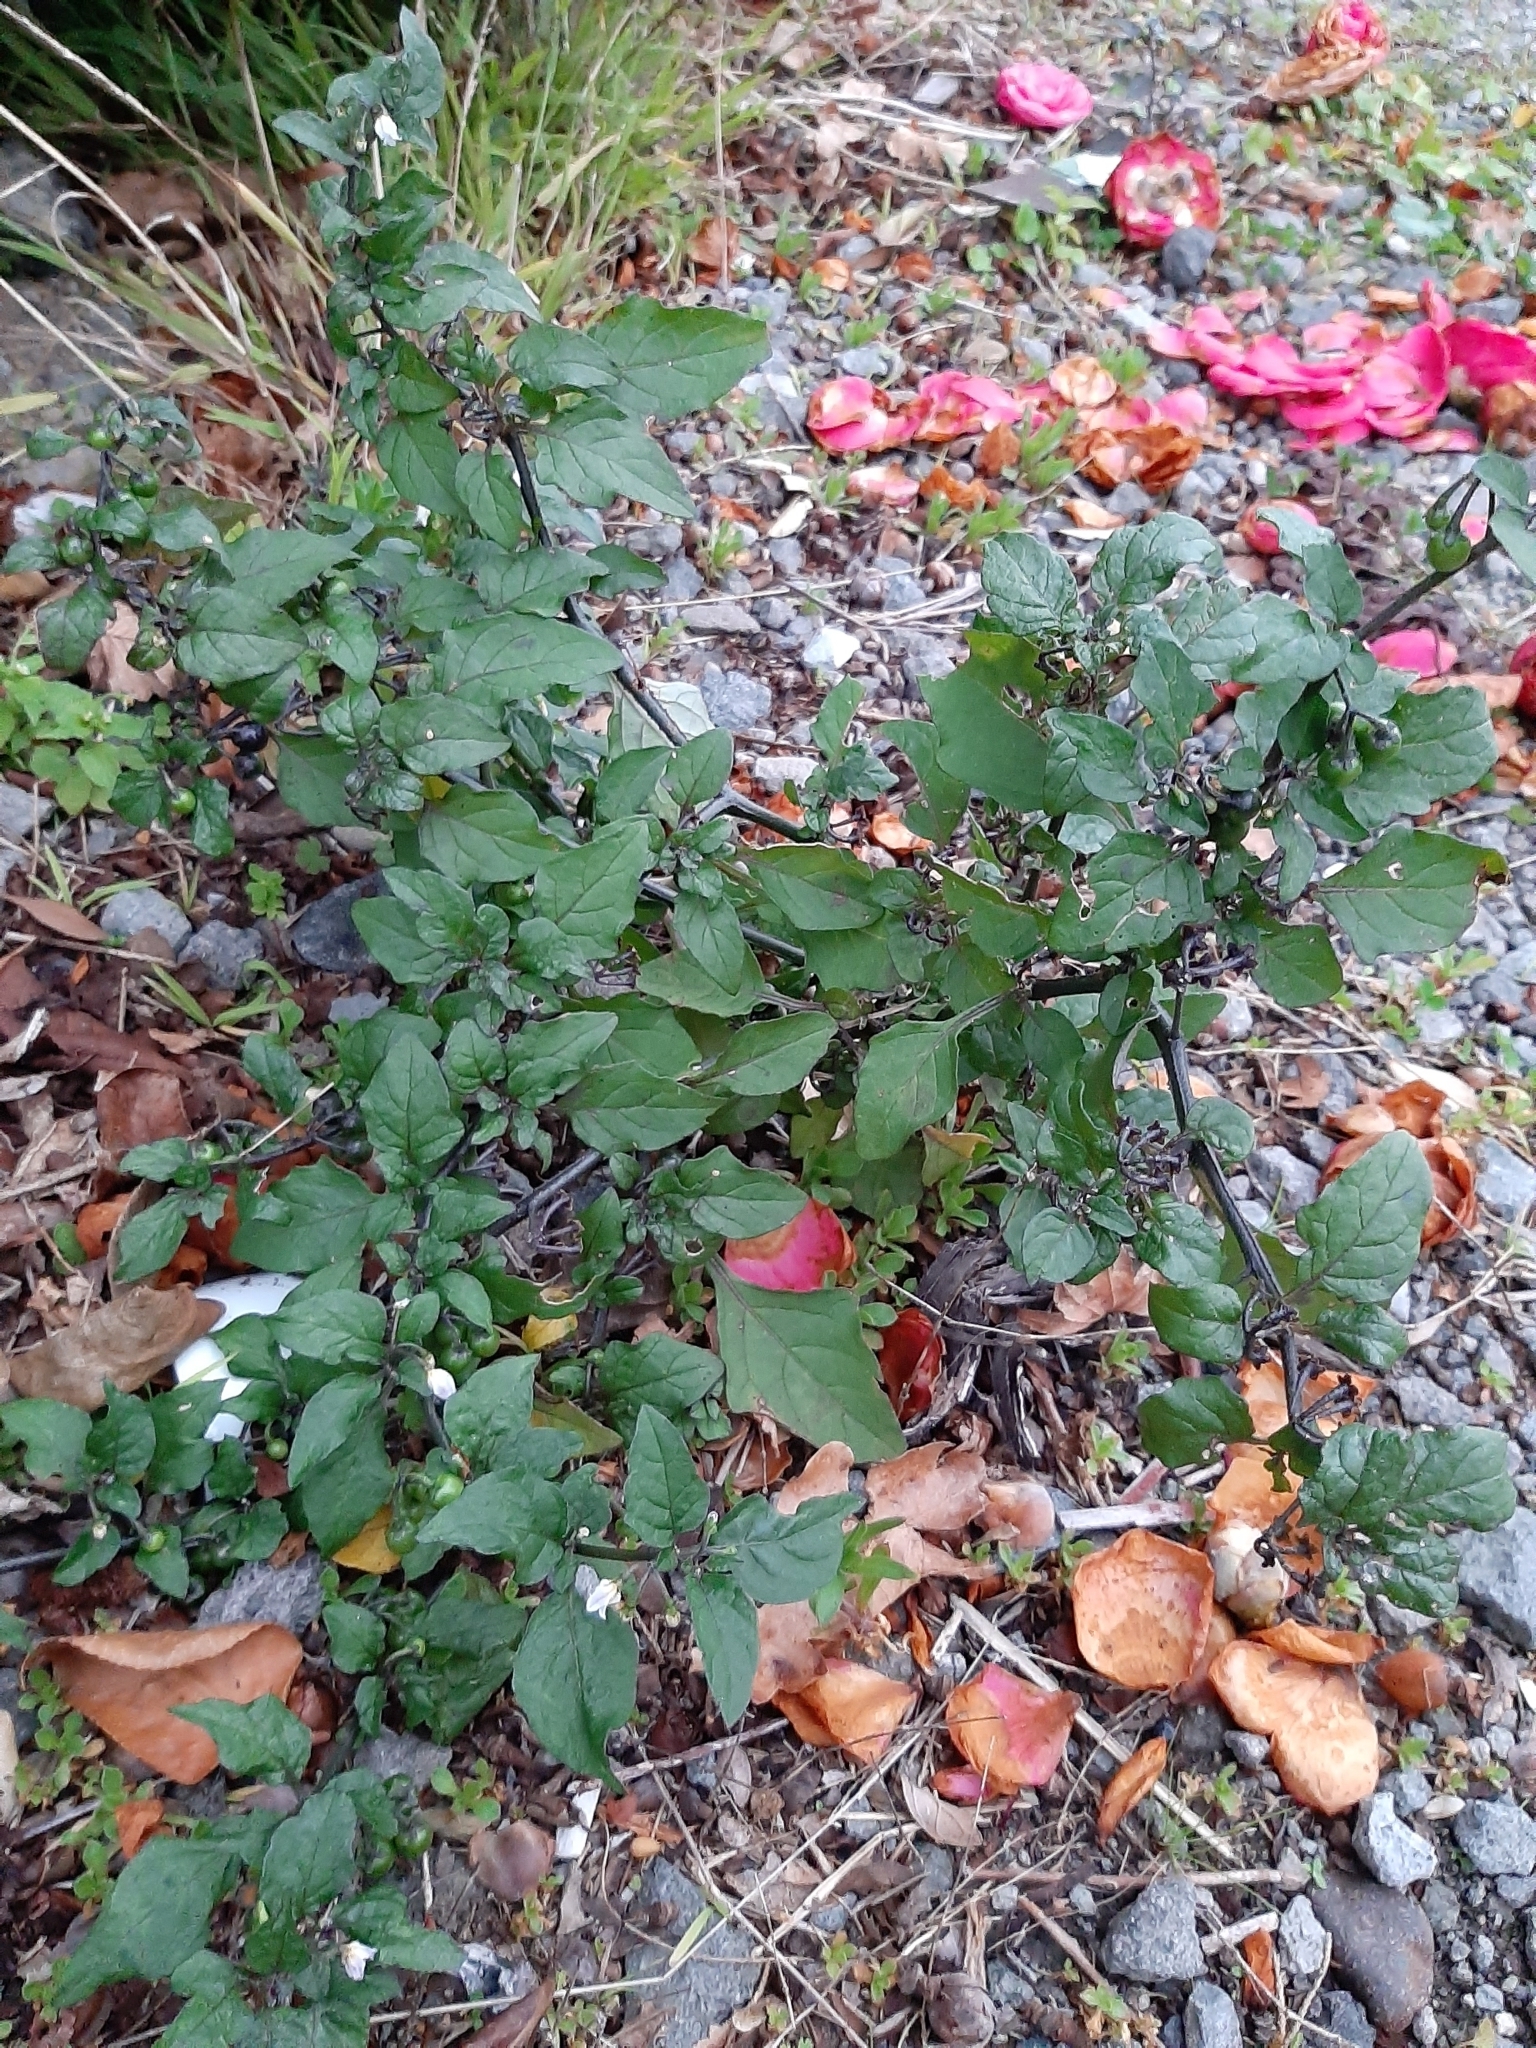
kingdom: Plantae
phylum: Tracheophyta
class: Magnoliopsida
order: Solanales
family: Solanaceae
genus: Solanum
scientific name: Solanum nigrum
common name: Black nightshade
